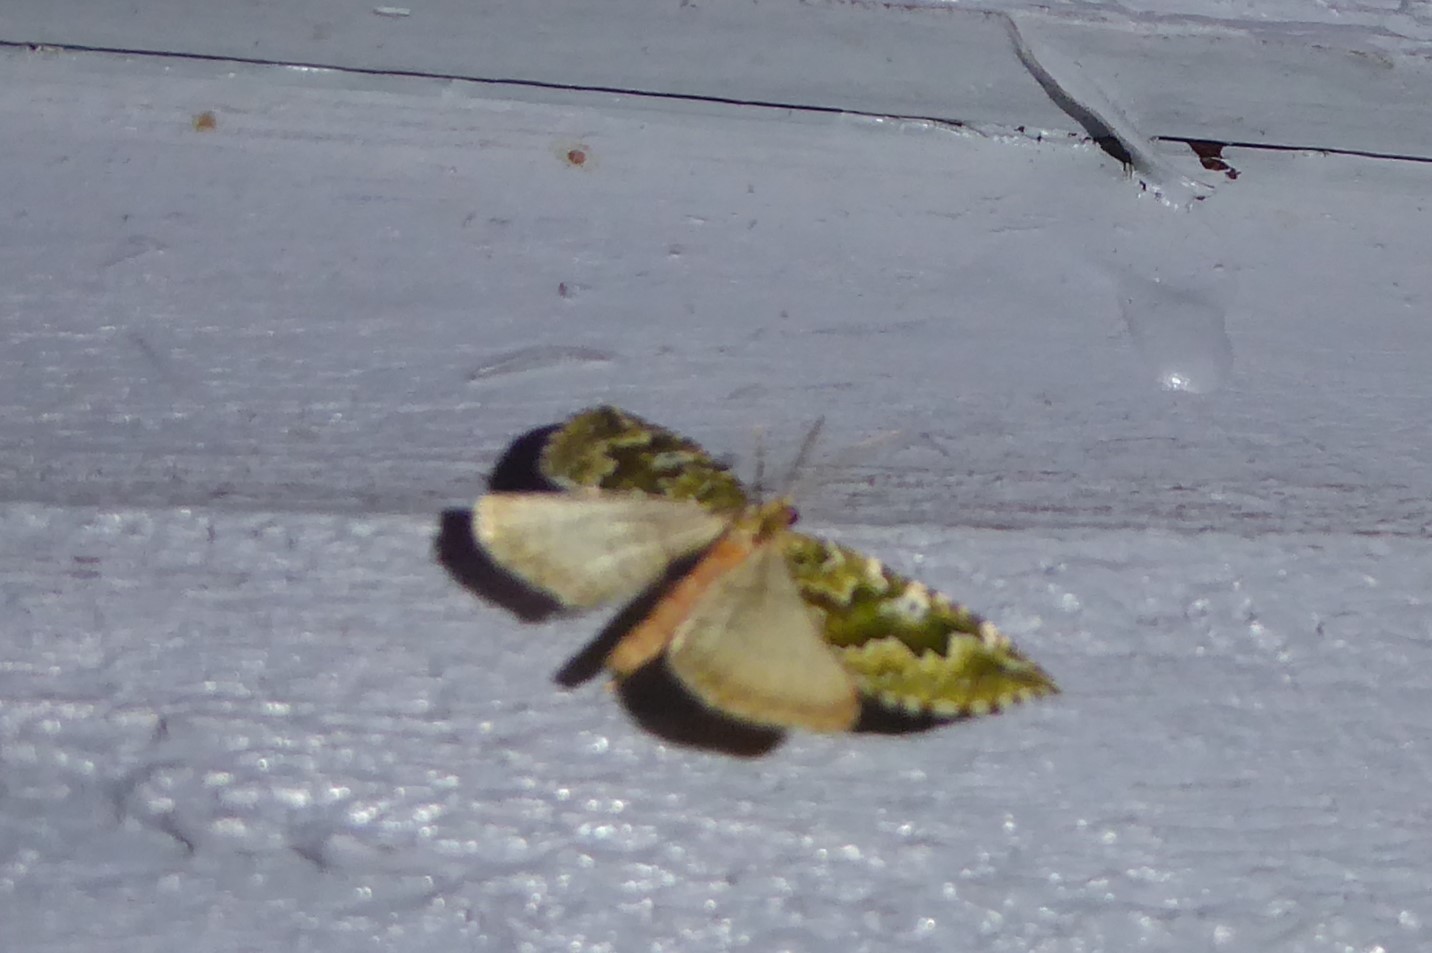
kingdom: Animalia
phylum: Arthropoda
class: Insecta
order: Lepidoptera
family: Geometridae
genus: Asaphodes
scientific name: Asaphodes beata
